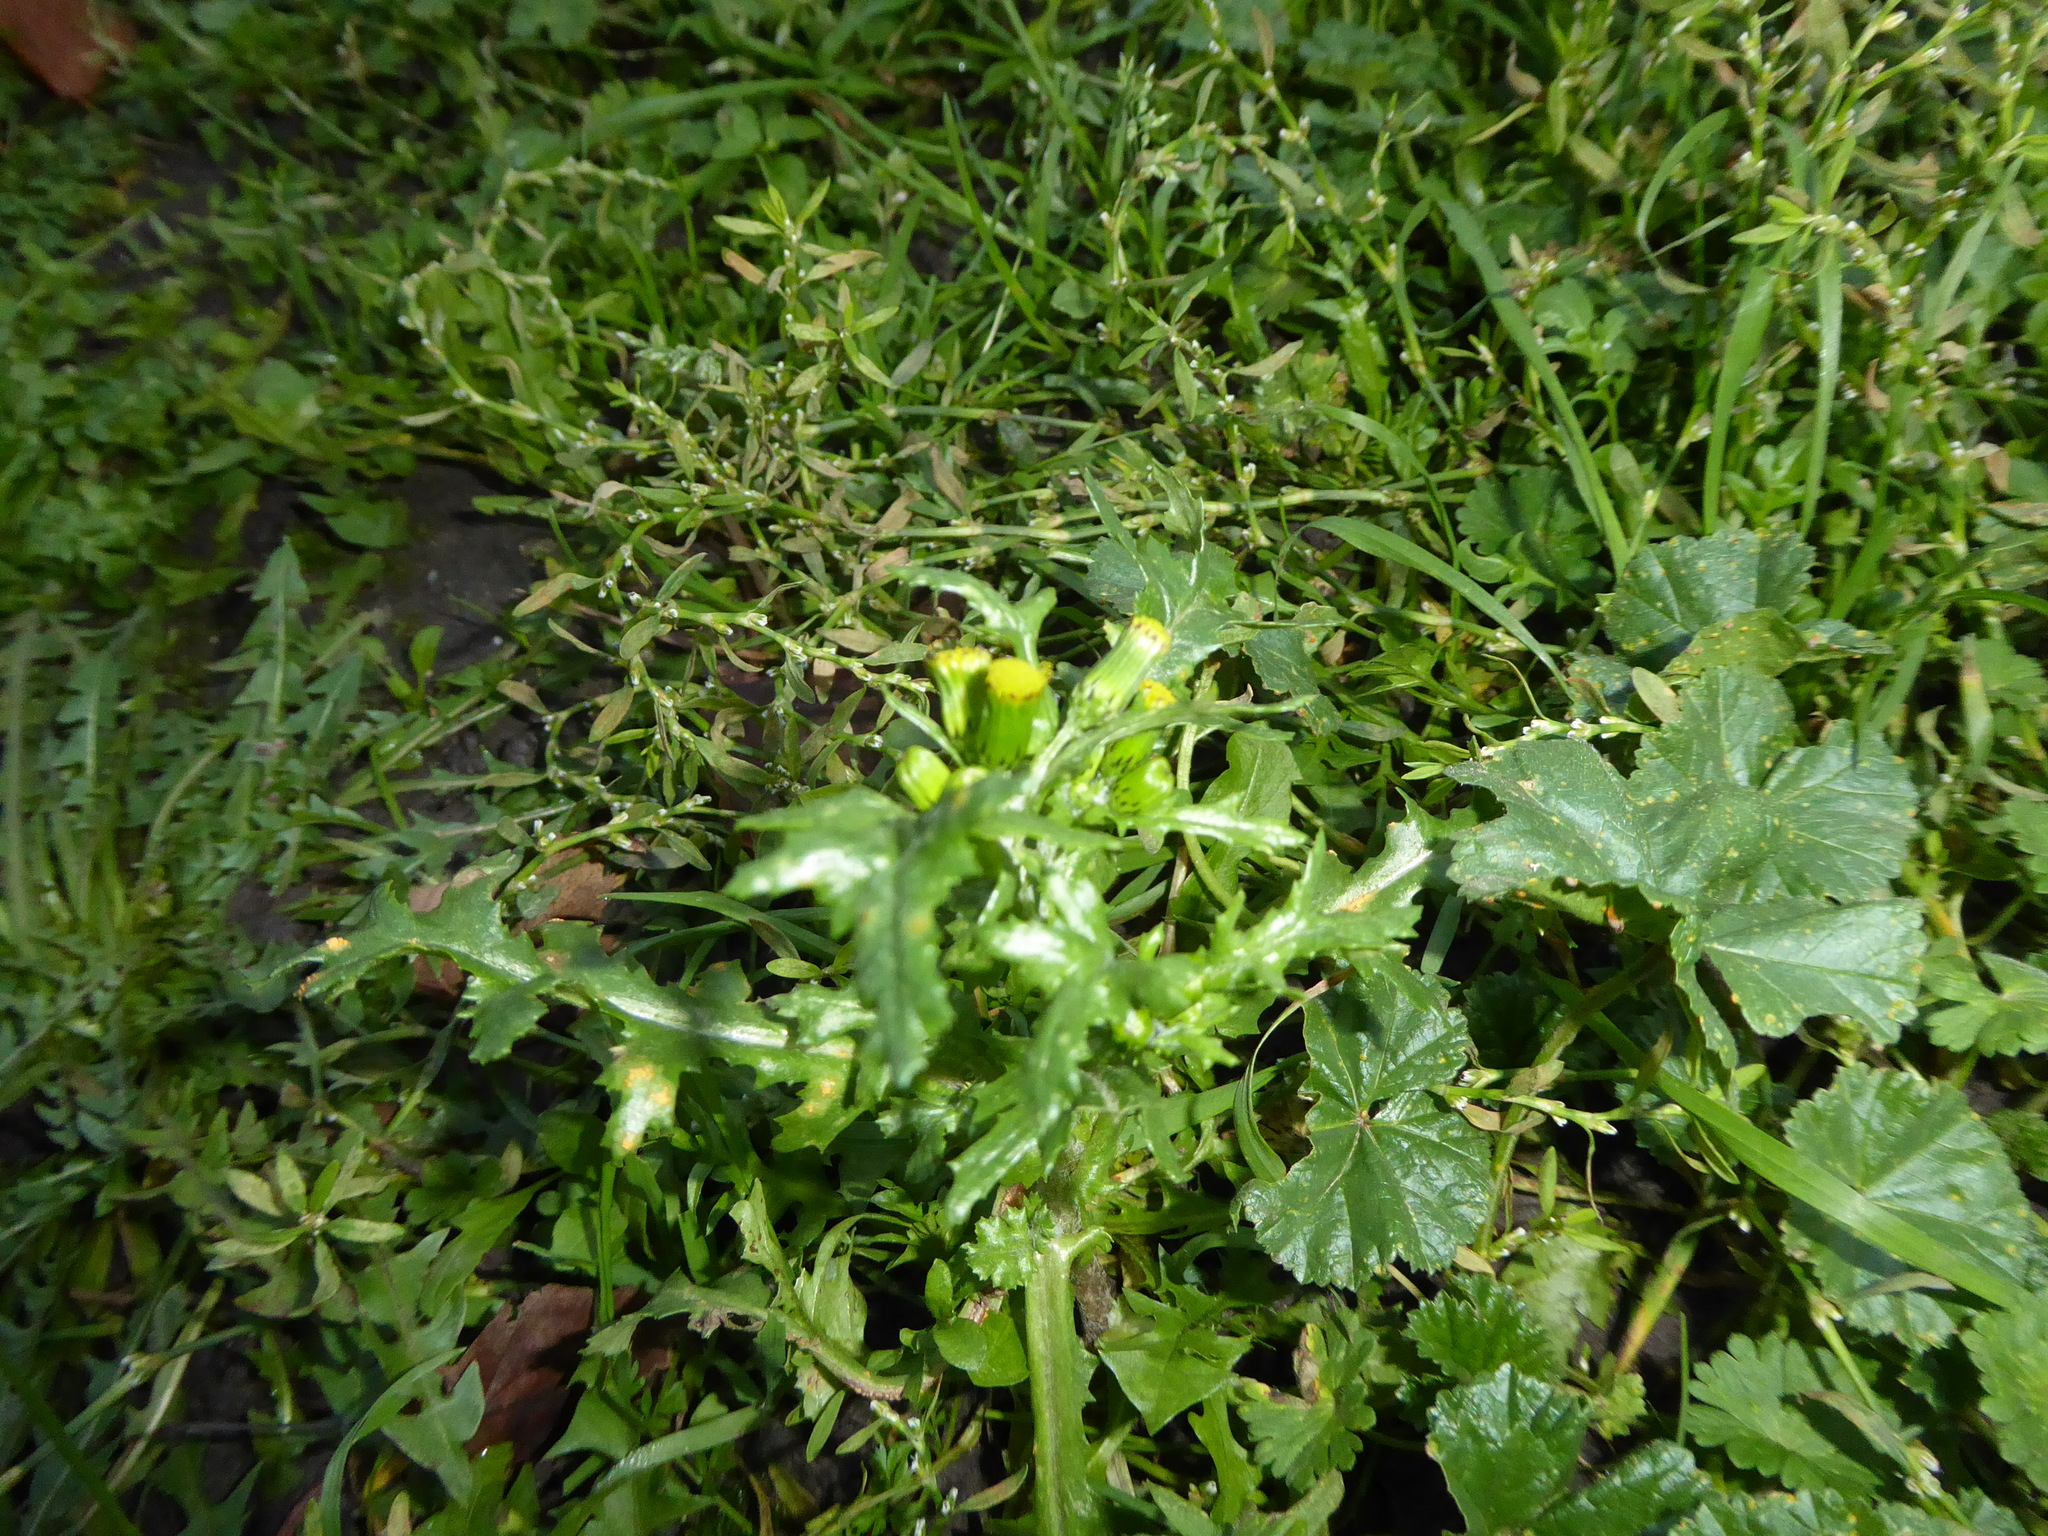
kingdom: Plantae
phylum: Tracheophyta
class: Magnoliopsida
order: Asterales
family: Asteraceae
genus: Senecio
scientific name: Senecio vulgaris
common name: Old-man-in-the-spring
